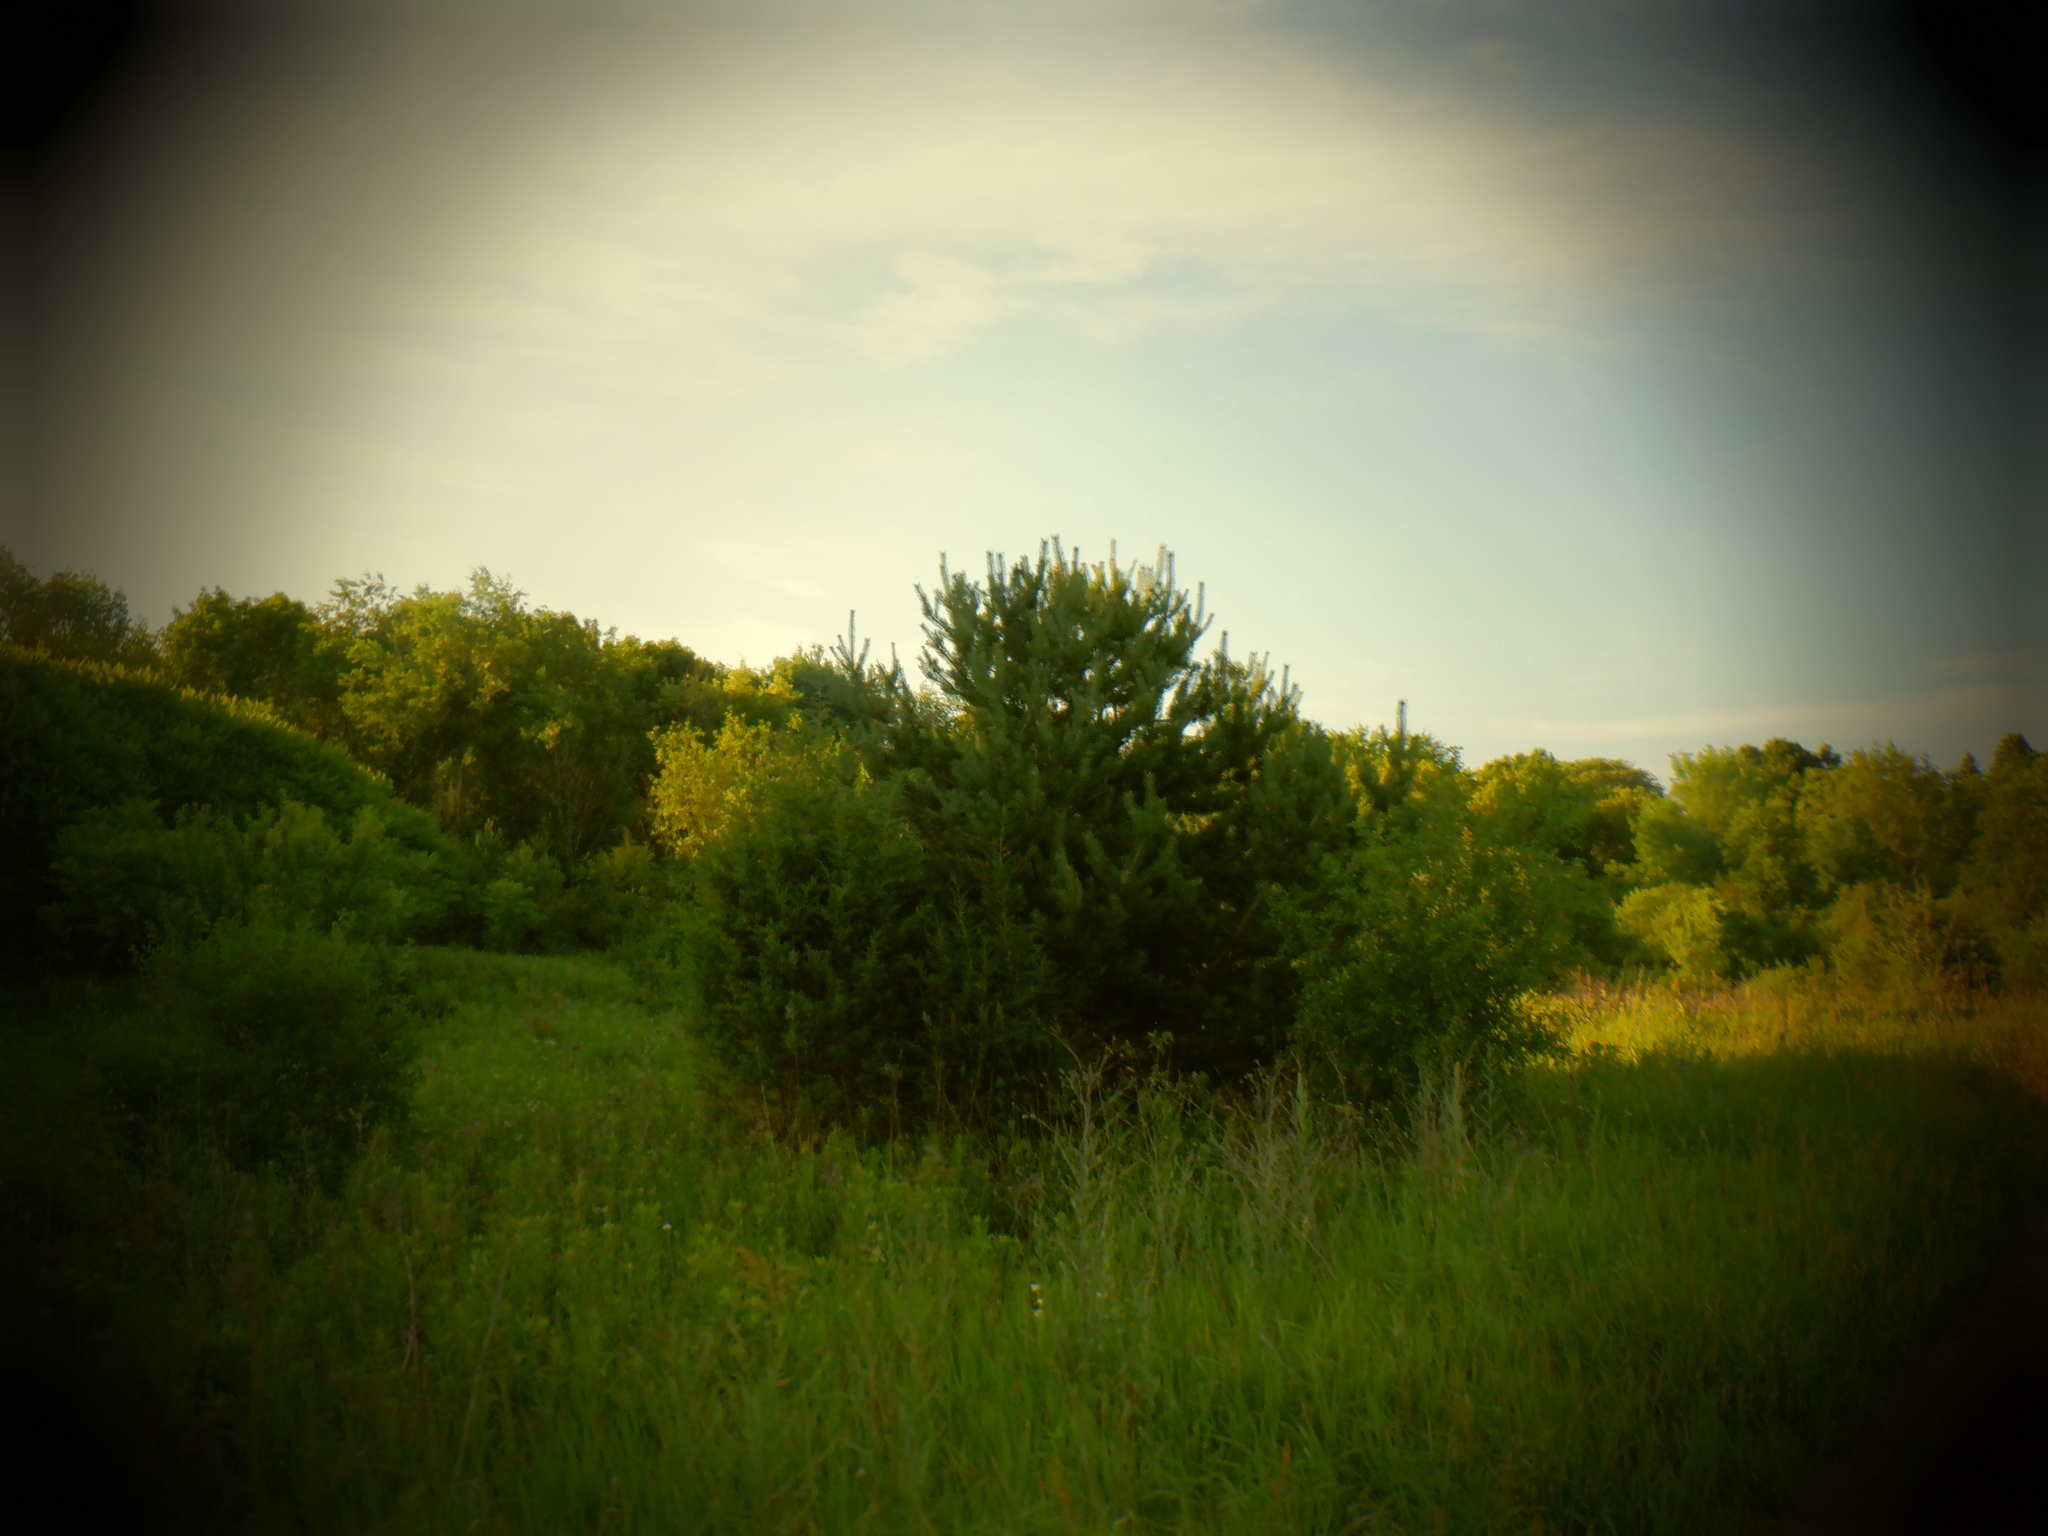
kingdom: Plantae
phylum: Tracheophyta
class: Pinopsida
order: Pinales
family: Pinaceae
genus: Pinus
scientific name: Pinus sylvestris
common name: Scots pine
